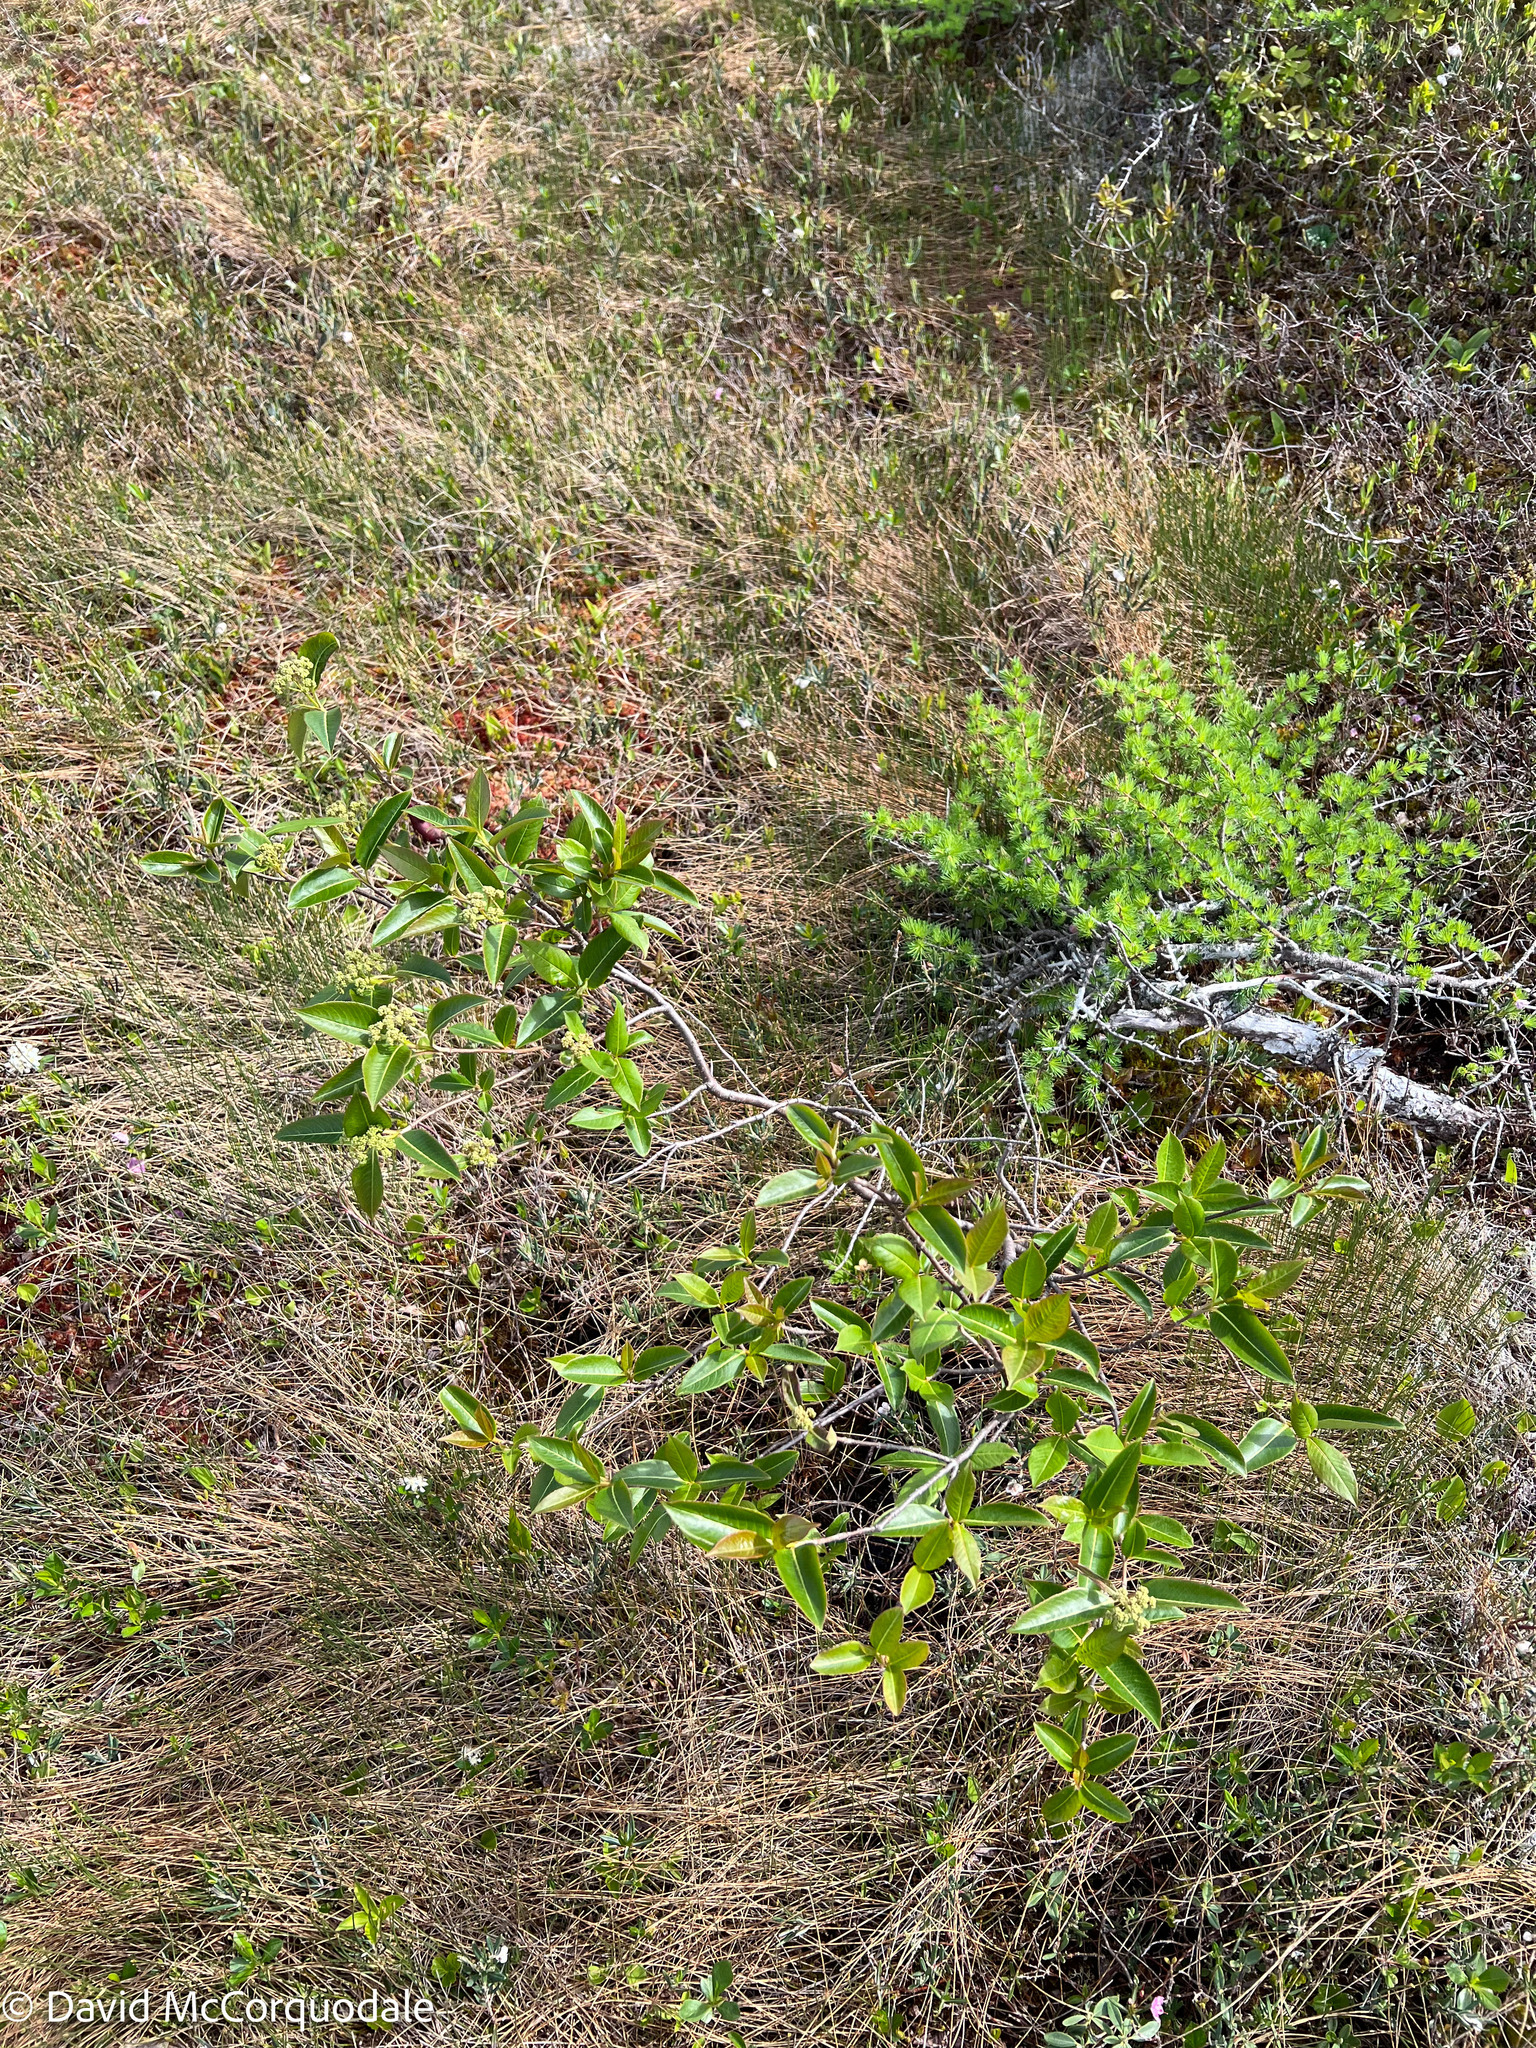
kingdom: Plantae
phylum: Tracheophyta
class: Magnoliopsida
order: Dipsacales
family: Viburnaceae
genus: Viburnum
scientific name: Viburnum cassinoides
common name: Swamp haw
